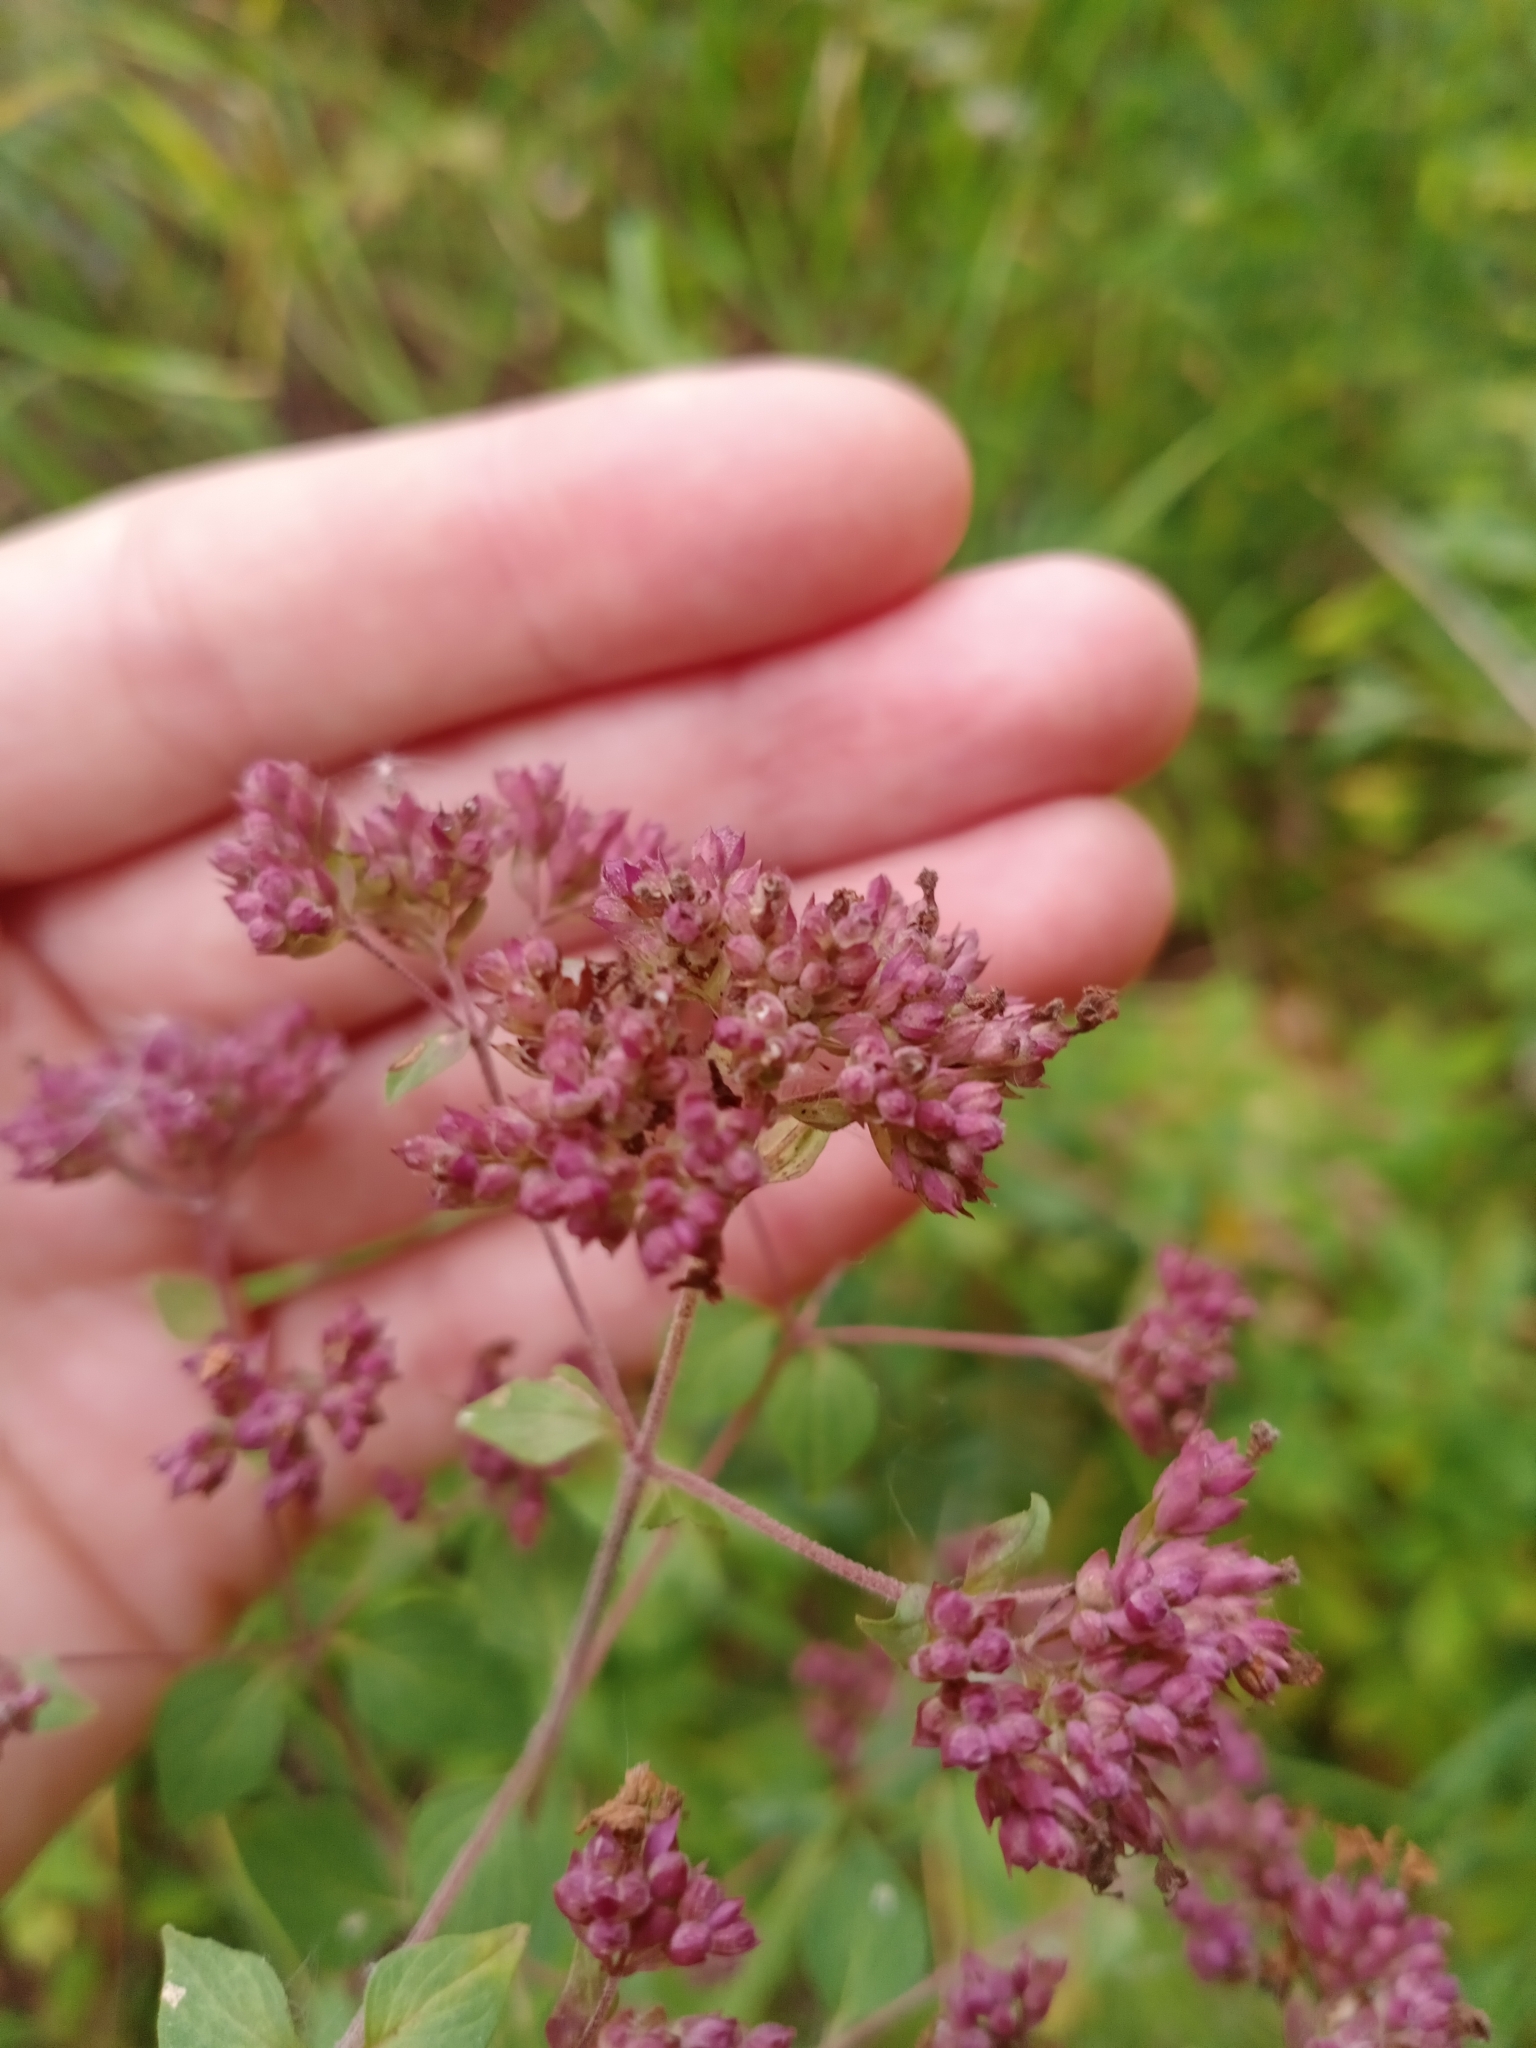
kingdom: Plantae
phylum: Tracheophyta
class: Magnoliopsida
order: Lamiales
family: Lamiaceae
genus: Origanum
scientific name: Origanum vulgare
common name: Wild marjoram
